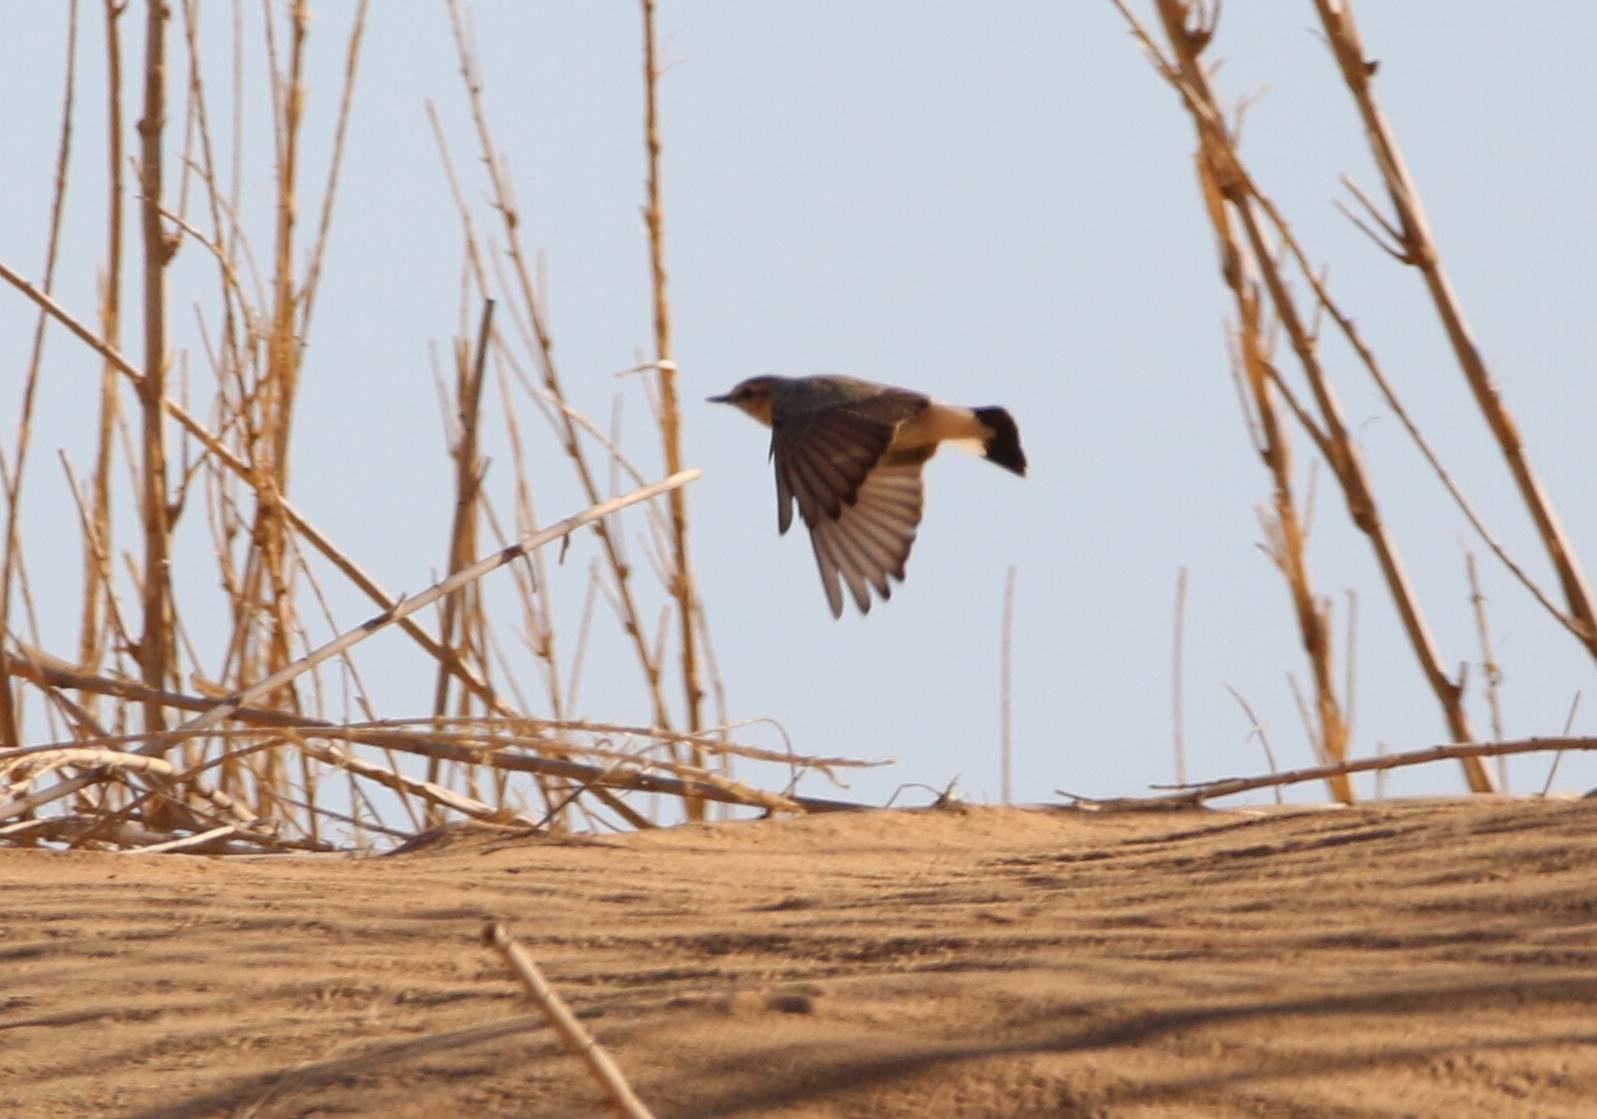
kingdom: Animalia
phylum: Chordata
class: Aves
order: Passeriformes
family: Muscicapidae
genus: Oenanthe
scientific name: Oenanthe isabellina
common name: Isabelline wheatear
